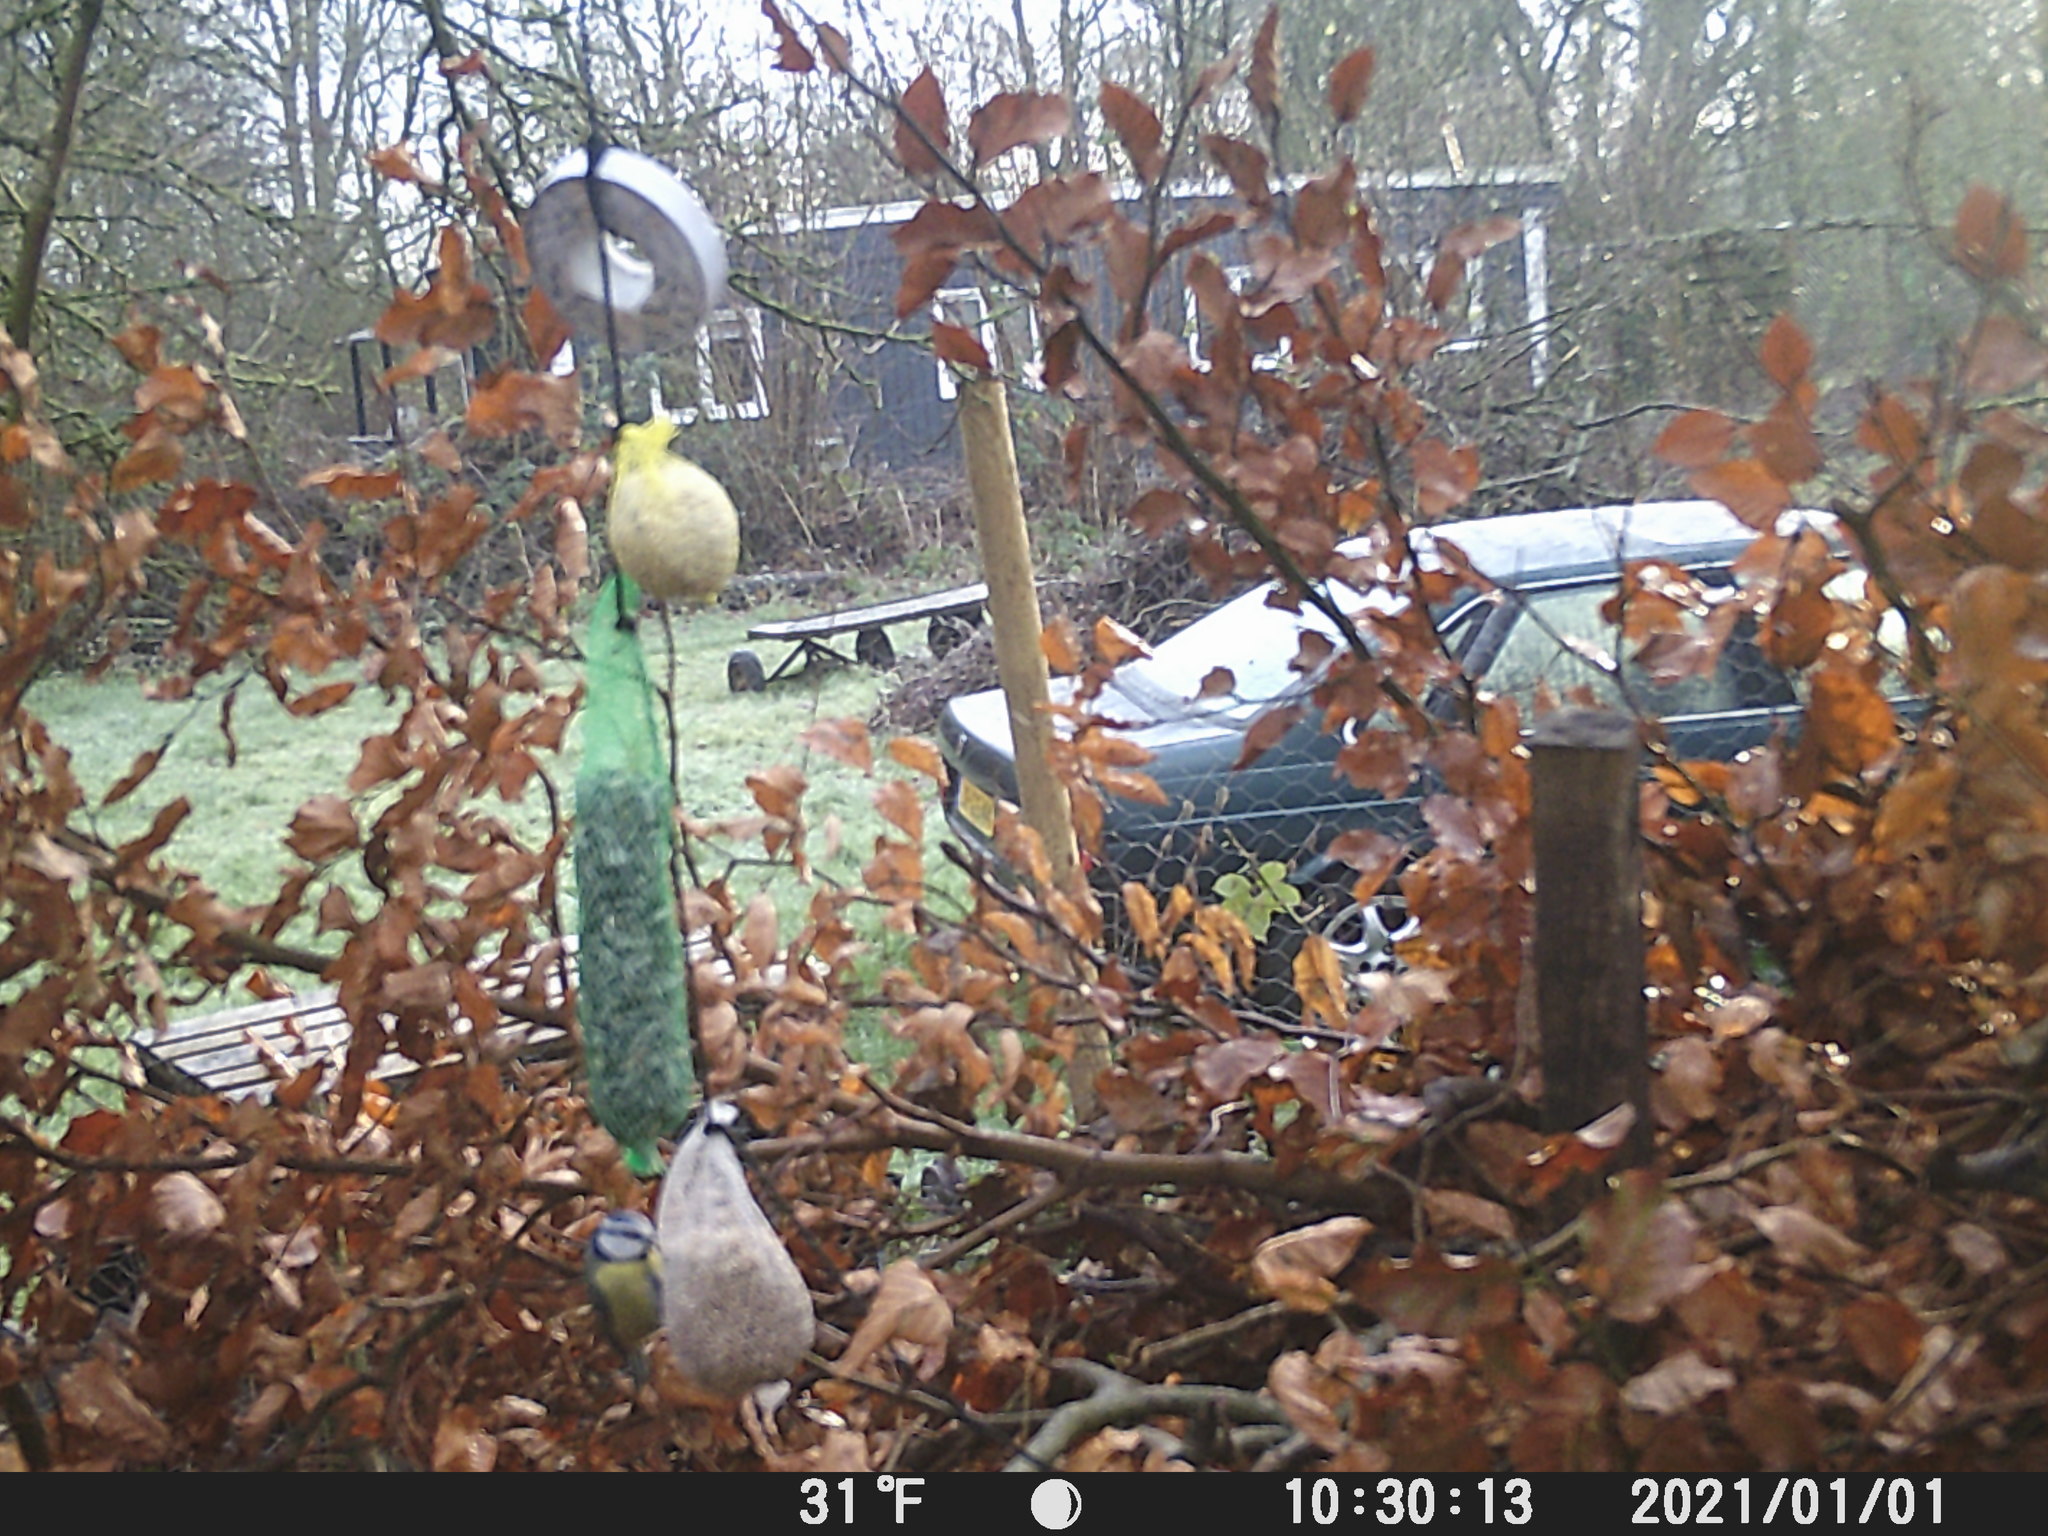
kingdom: Animalia
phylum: Chordata
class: Aves
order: Passeriformes
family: Paridae
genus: Cyanistes
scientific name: Cyanistes caeruleus
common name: Eurasian blue tit
